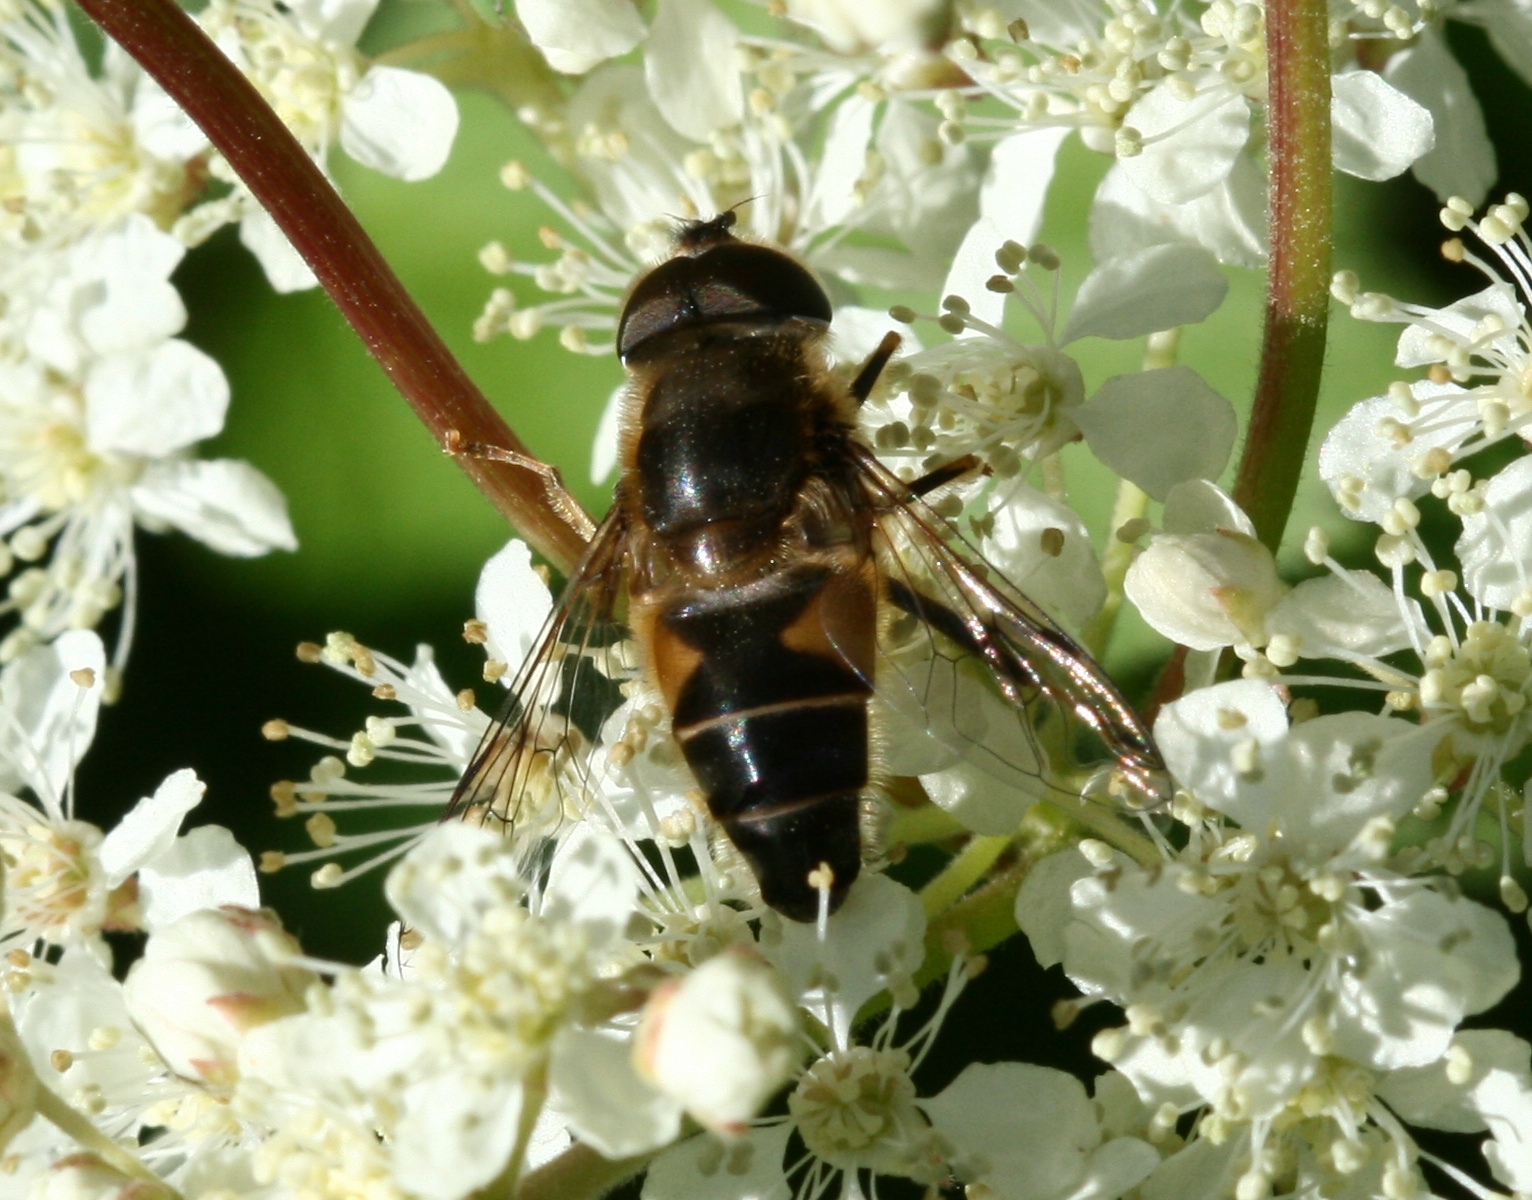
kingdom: Animalia
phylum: Arthropoda
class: Insecta
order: Diptera
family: Syrphidae
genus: Eristalis
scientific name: Eristalis pertinax
